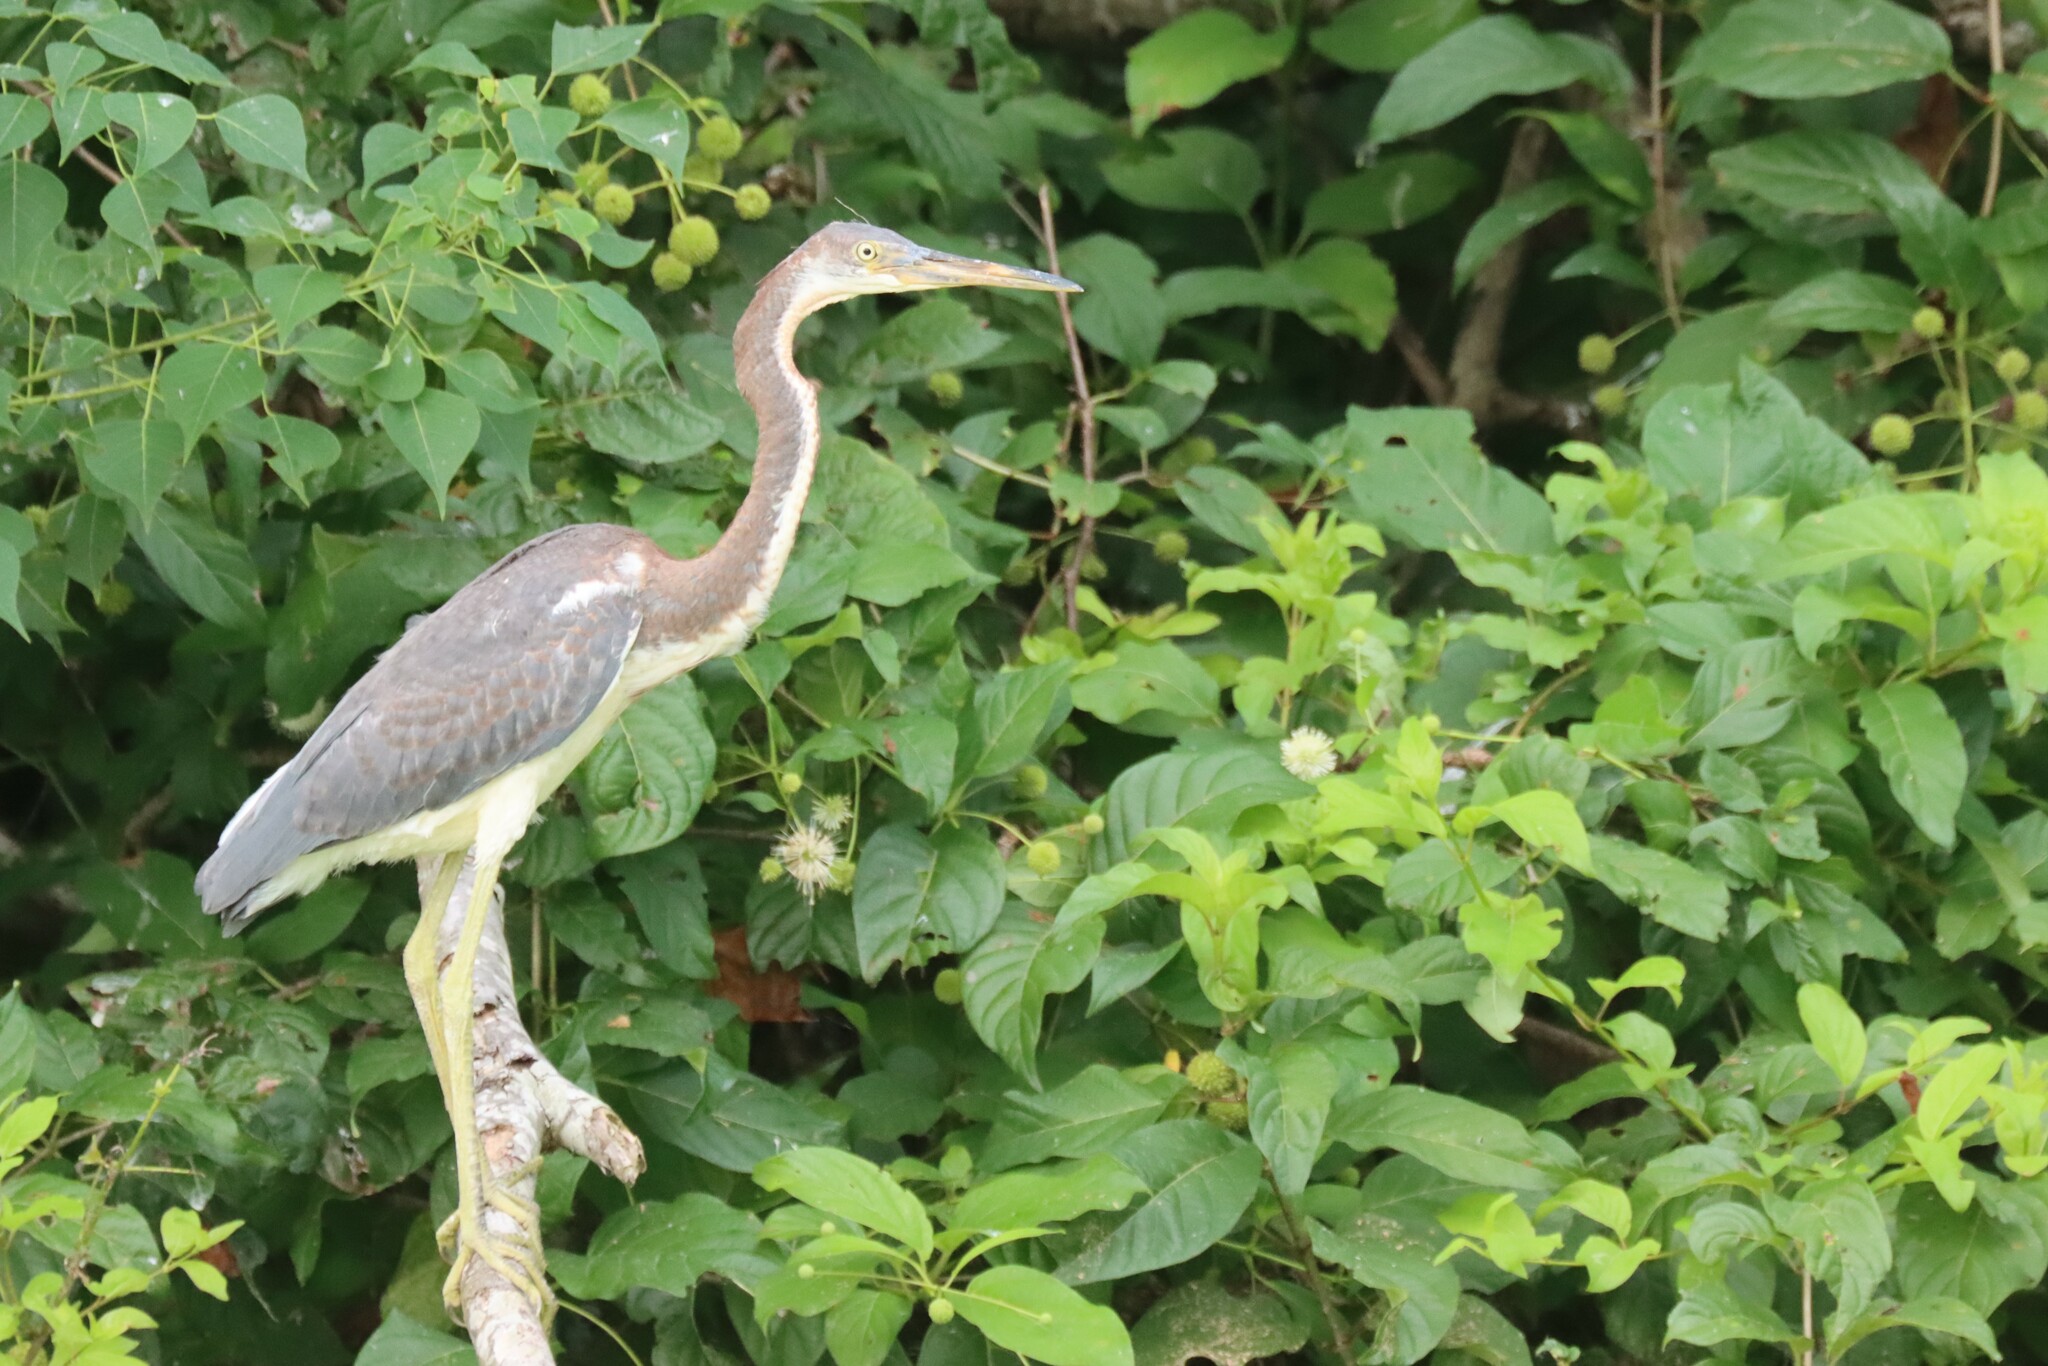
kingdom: Animalia
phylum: Chordata
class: Aves
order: Pelecaniformes
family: Ardeidae
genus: Egretta
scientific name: Egretta tricolor
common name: Tricolored heron
